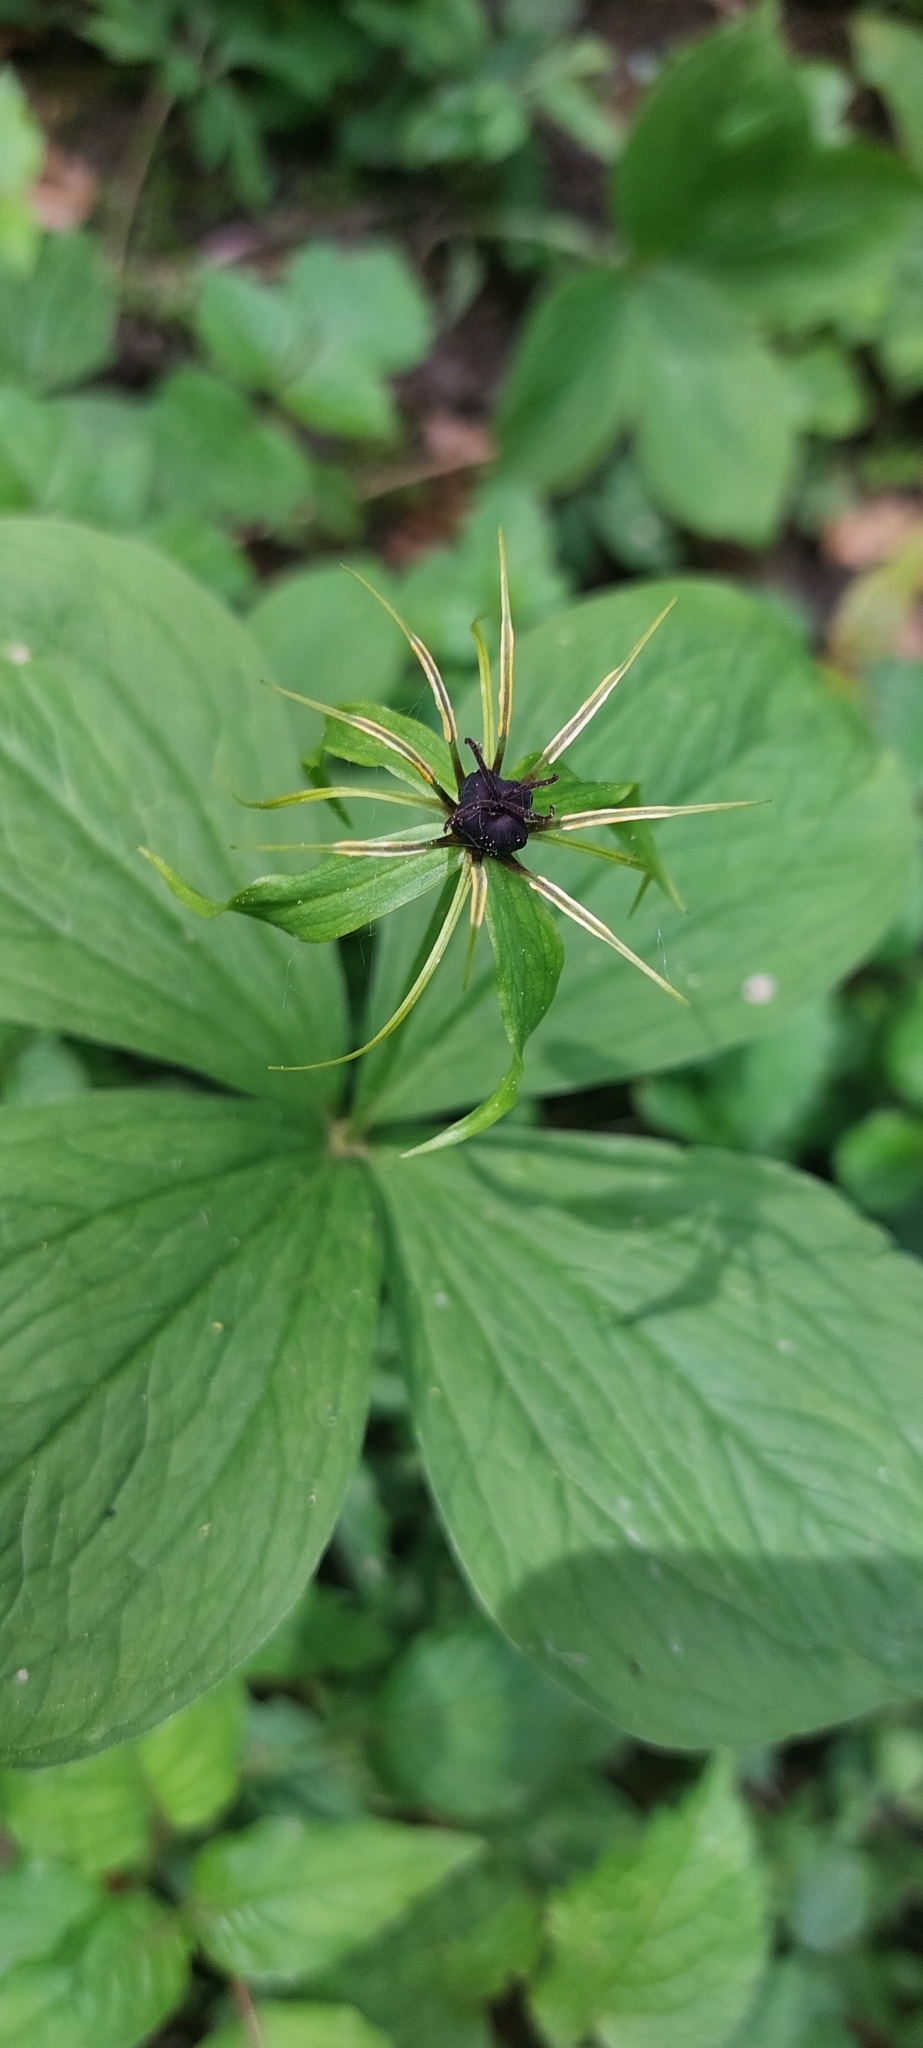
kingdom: Plantae
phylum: Tracheophyta
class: Liliopsida
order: Liliales
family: Melanthiaceae
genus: Paris
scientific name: Paris quadrifolia
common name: Herb-paris
